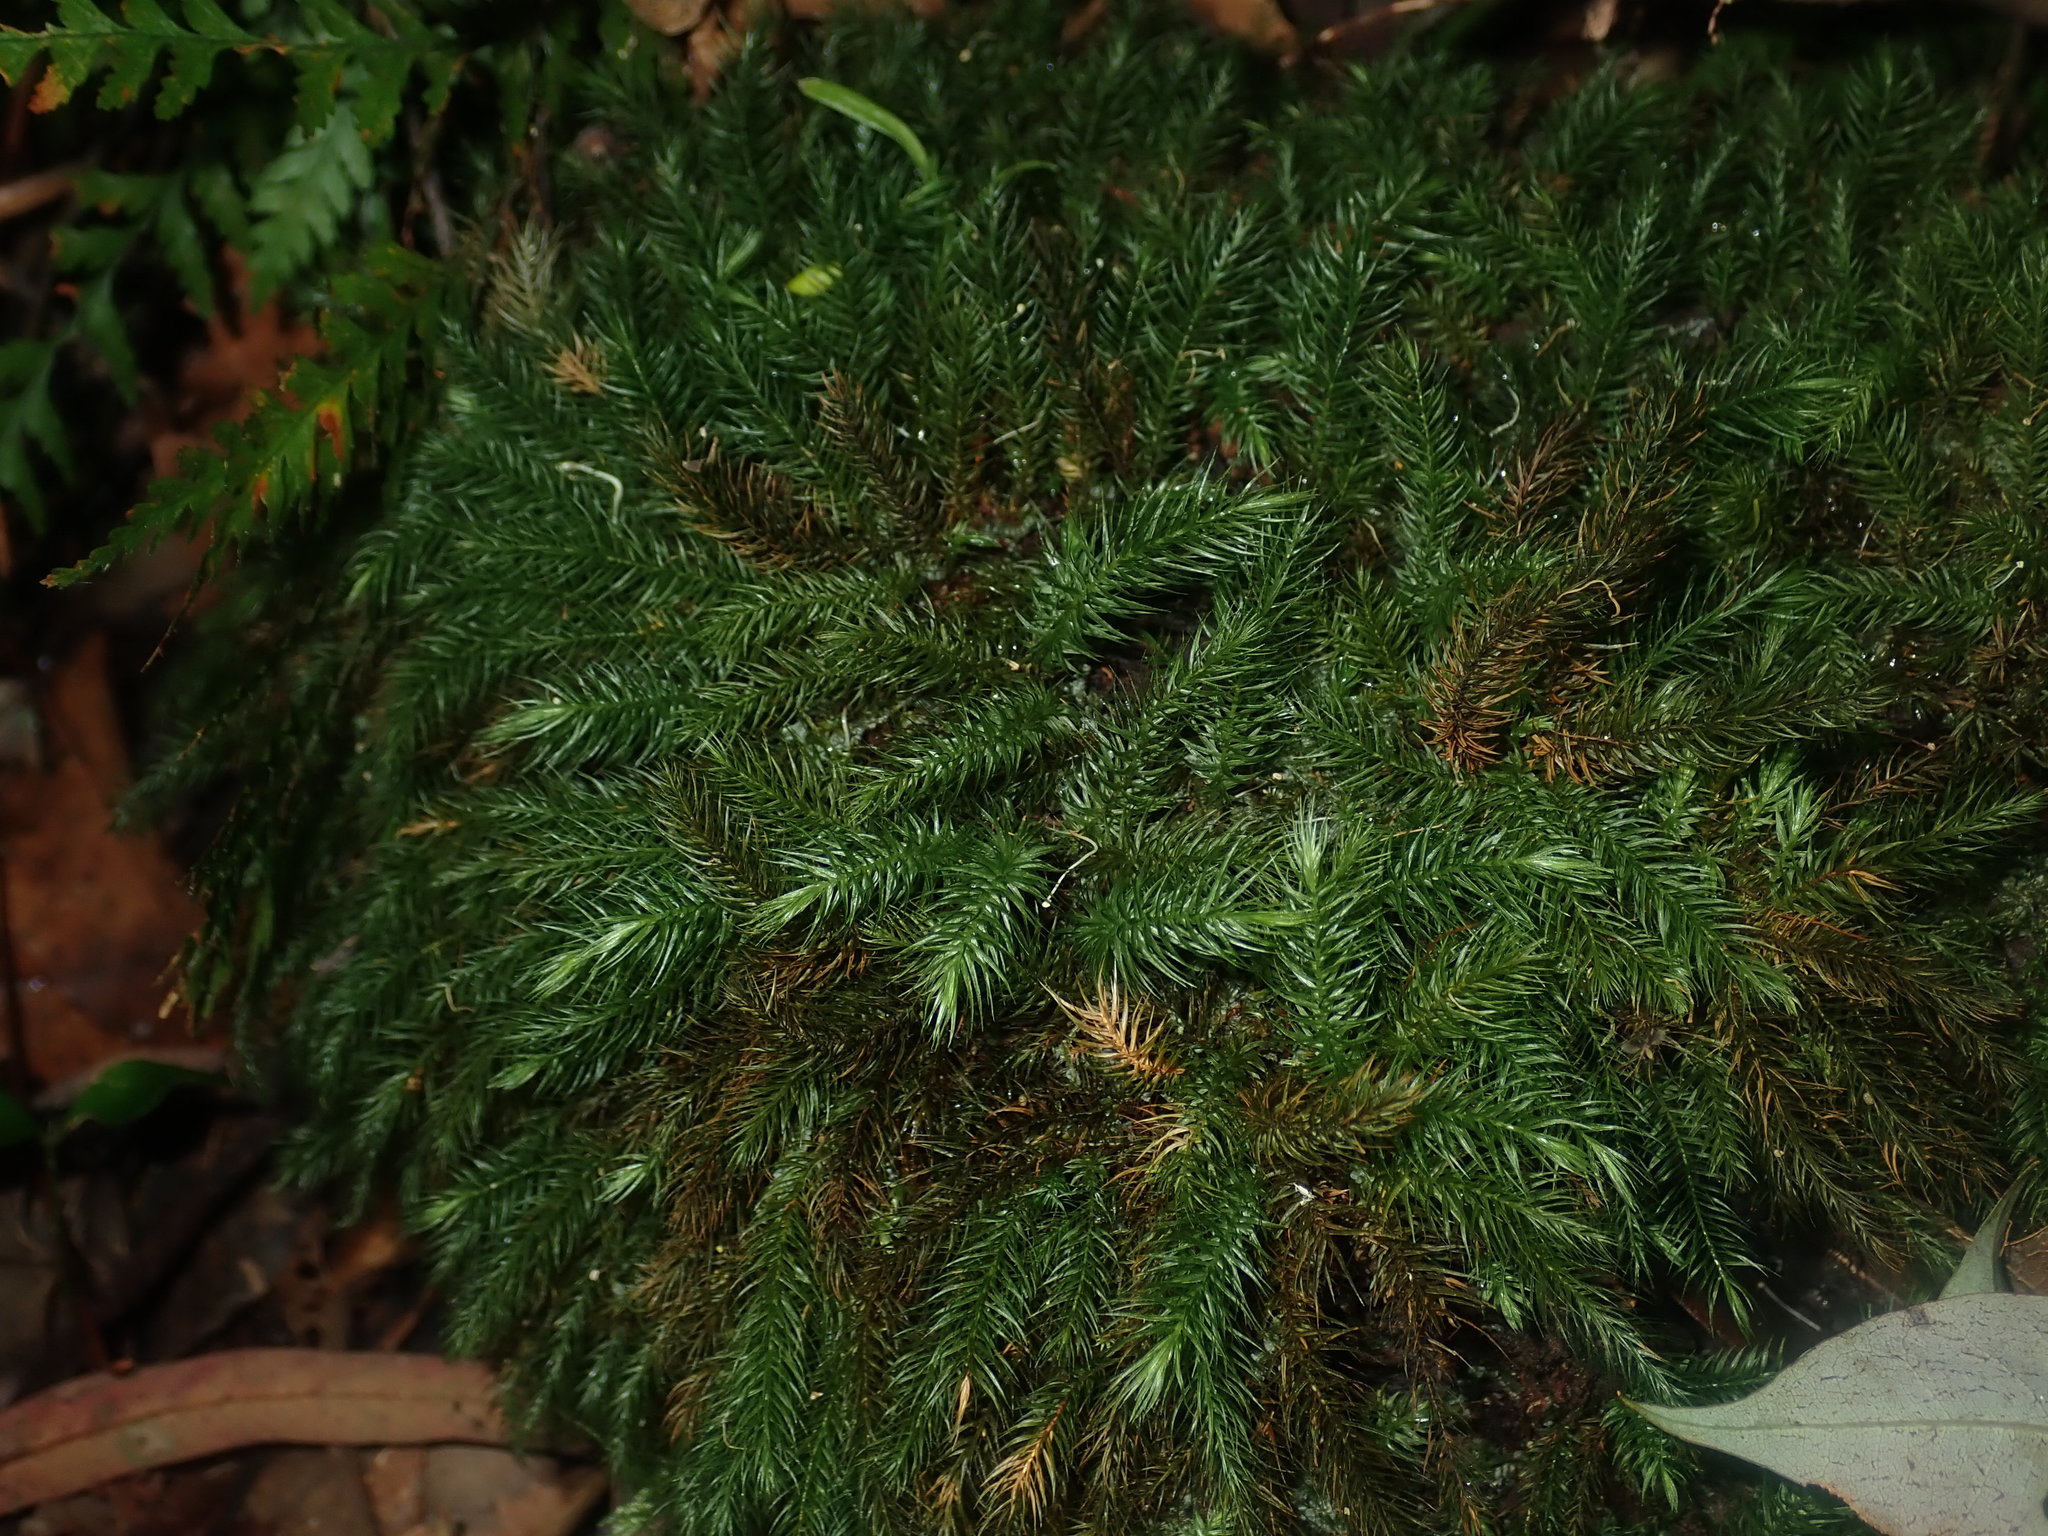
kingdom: Plantae
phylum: Bryophyta
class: Bryopsida
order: Rhizogoniales
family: Calomniaceae
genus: Pyrrhobryum
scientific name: Pyrrhobryum spiniforme
